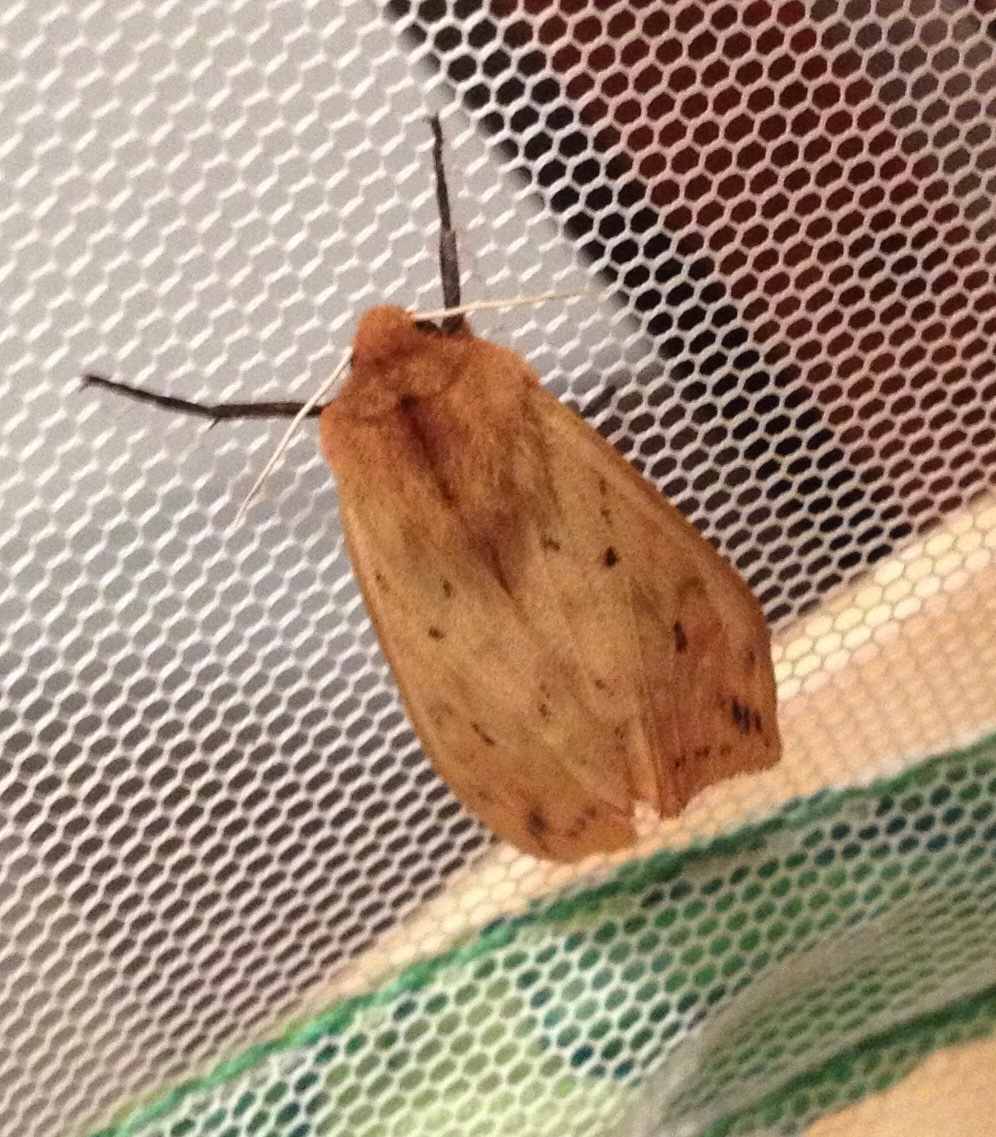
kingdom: Animalia
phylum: Arthropoda
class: Insecta
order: Lepidoptera
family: Erebidae
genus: Pyrrharctia
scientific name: Pyrrharctia isabella
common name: Isabella tiger moth
